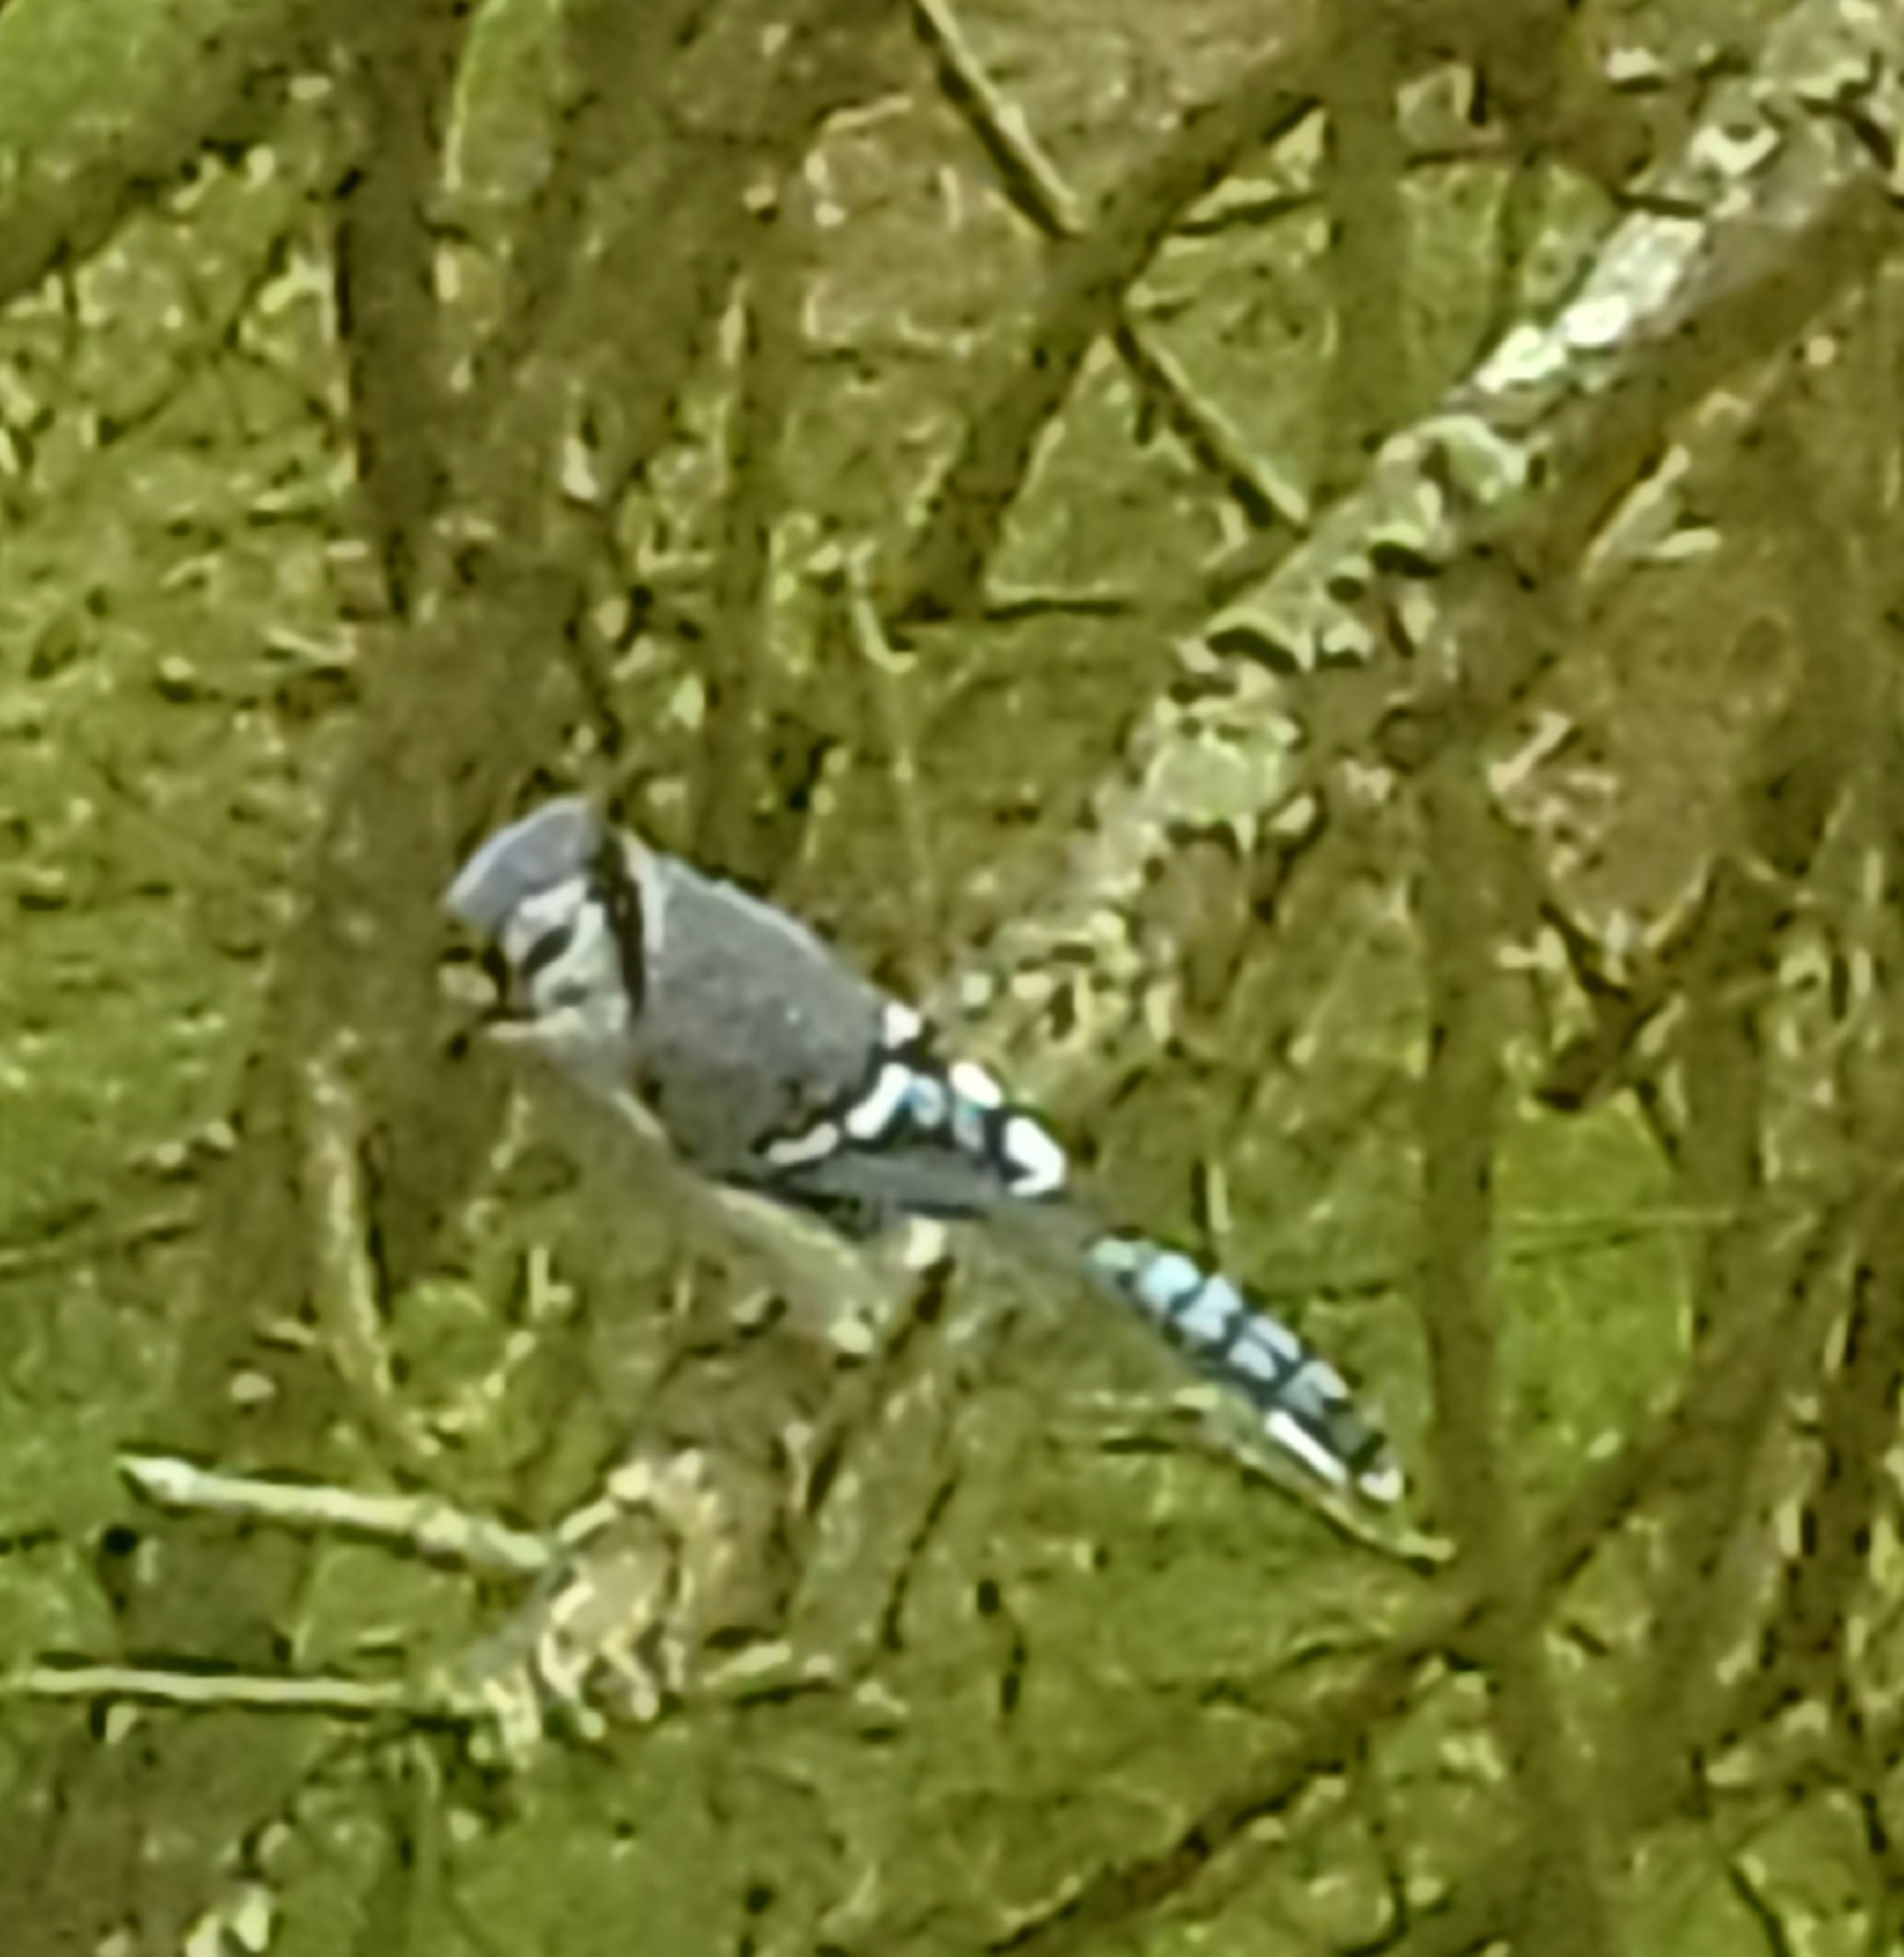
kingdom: Animalia
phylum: Chordata
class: Aves
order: Passeriformes
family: Corvidae
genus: Cyanocitta
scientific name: Cyanocitta cristata
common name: Blue jay
